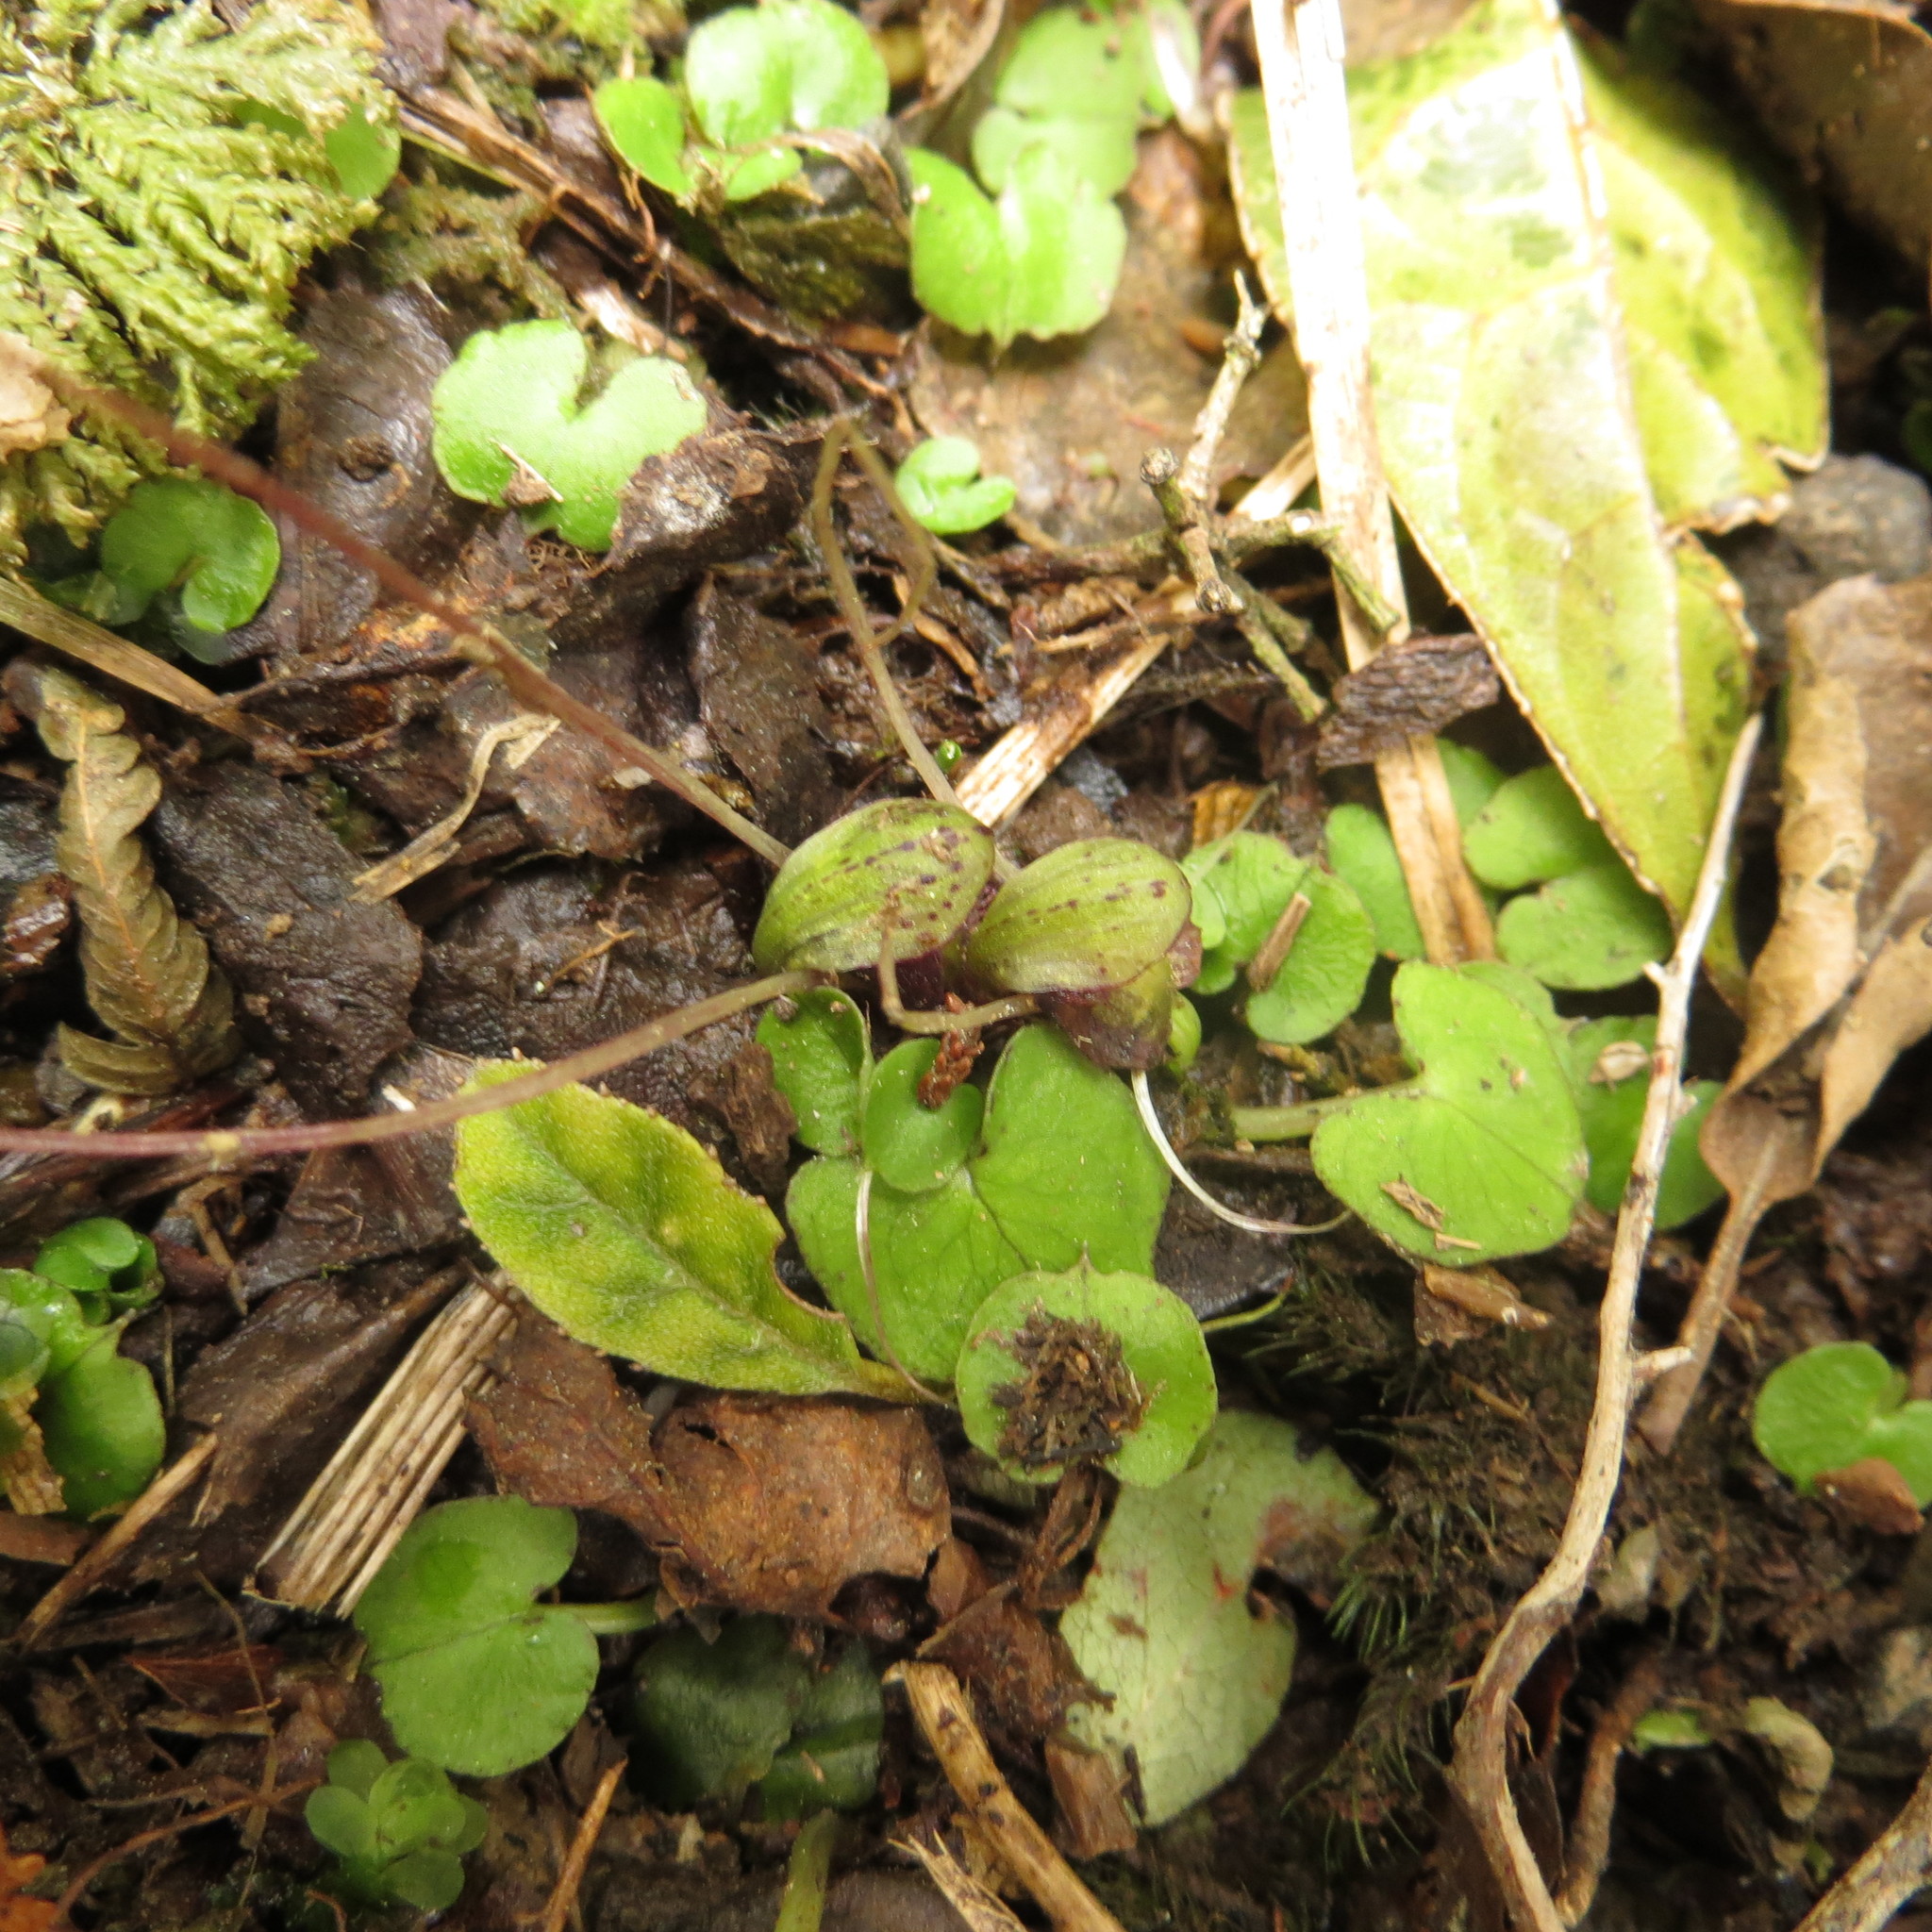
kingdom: Plantae
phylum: Tracheophyta
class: Liliopsida
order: Asparagales
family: Orchidaceae
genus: Corybas
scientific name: Corybas trilobus
